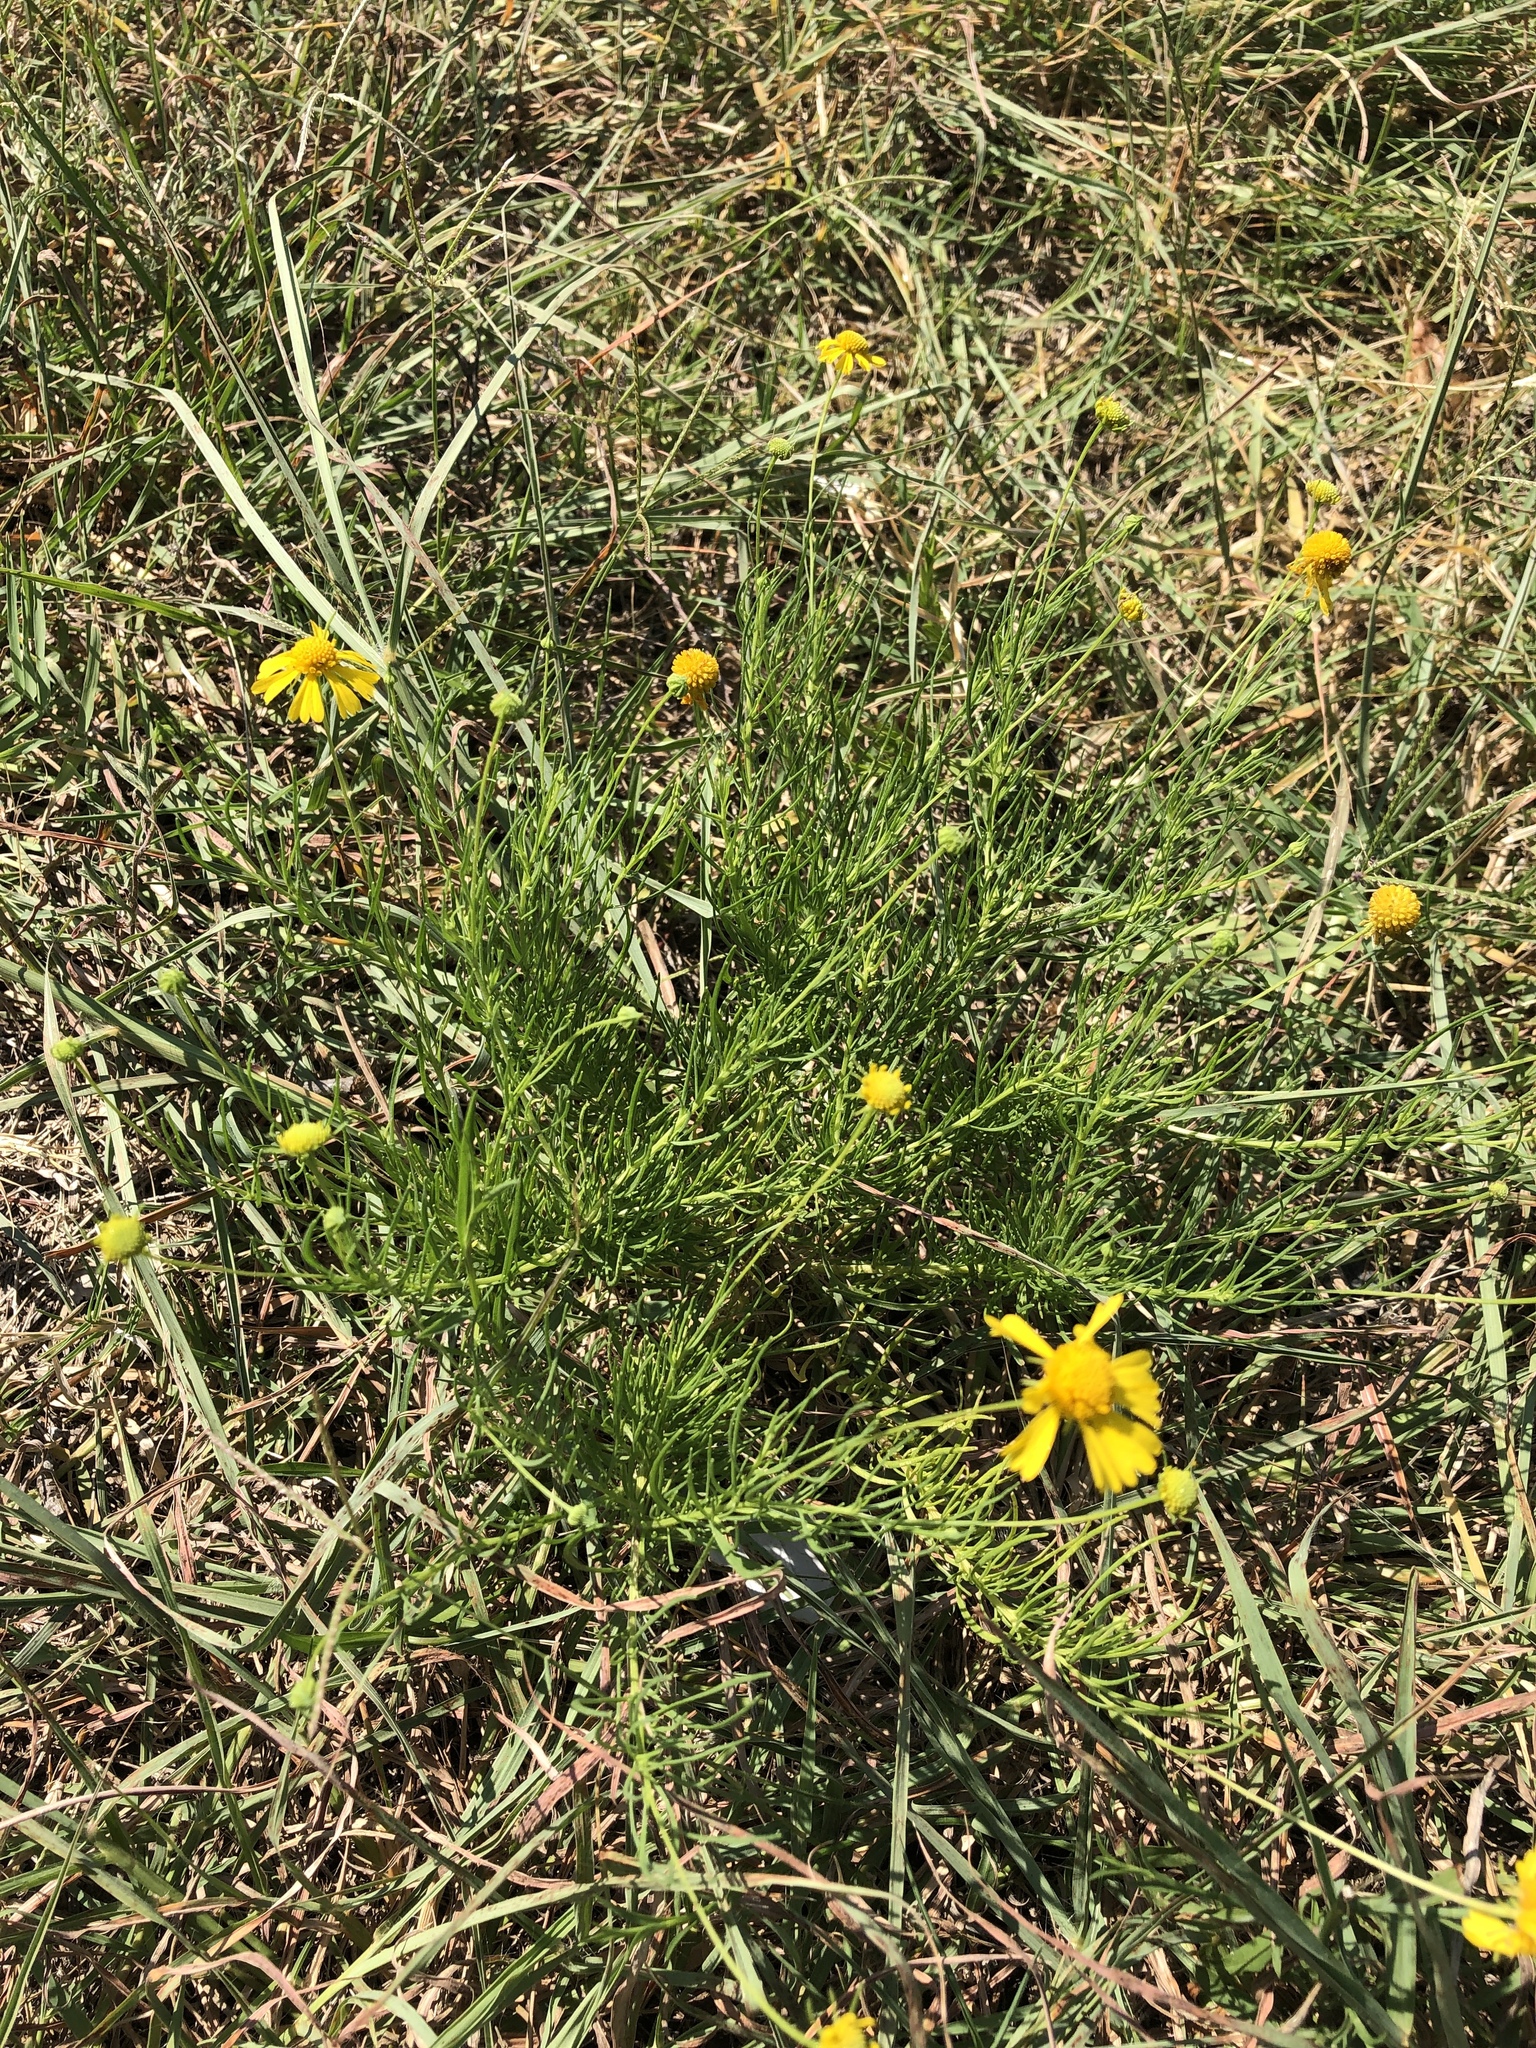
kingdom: Plantae
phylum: Tracheophyta
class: Magnoliopsida
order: Asterales
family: Asteraceae
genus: Helenium
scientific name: Helenium amarum
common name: Bitter sneezeweed
